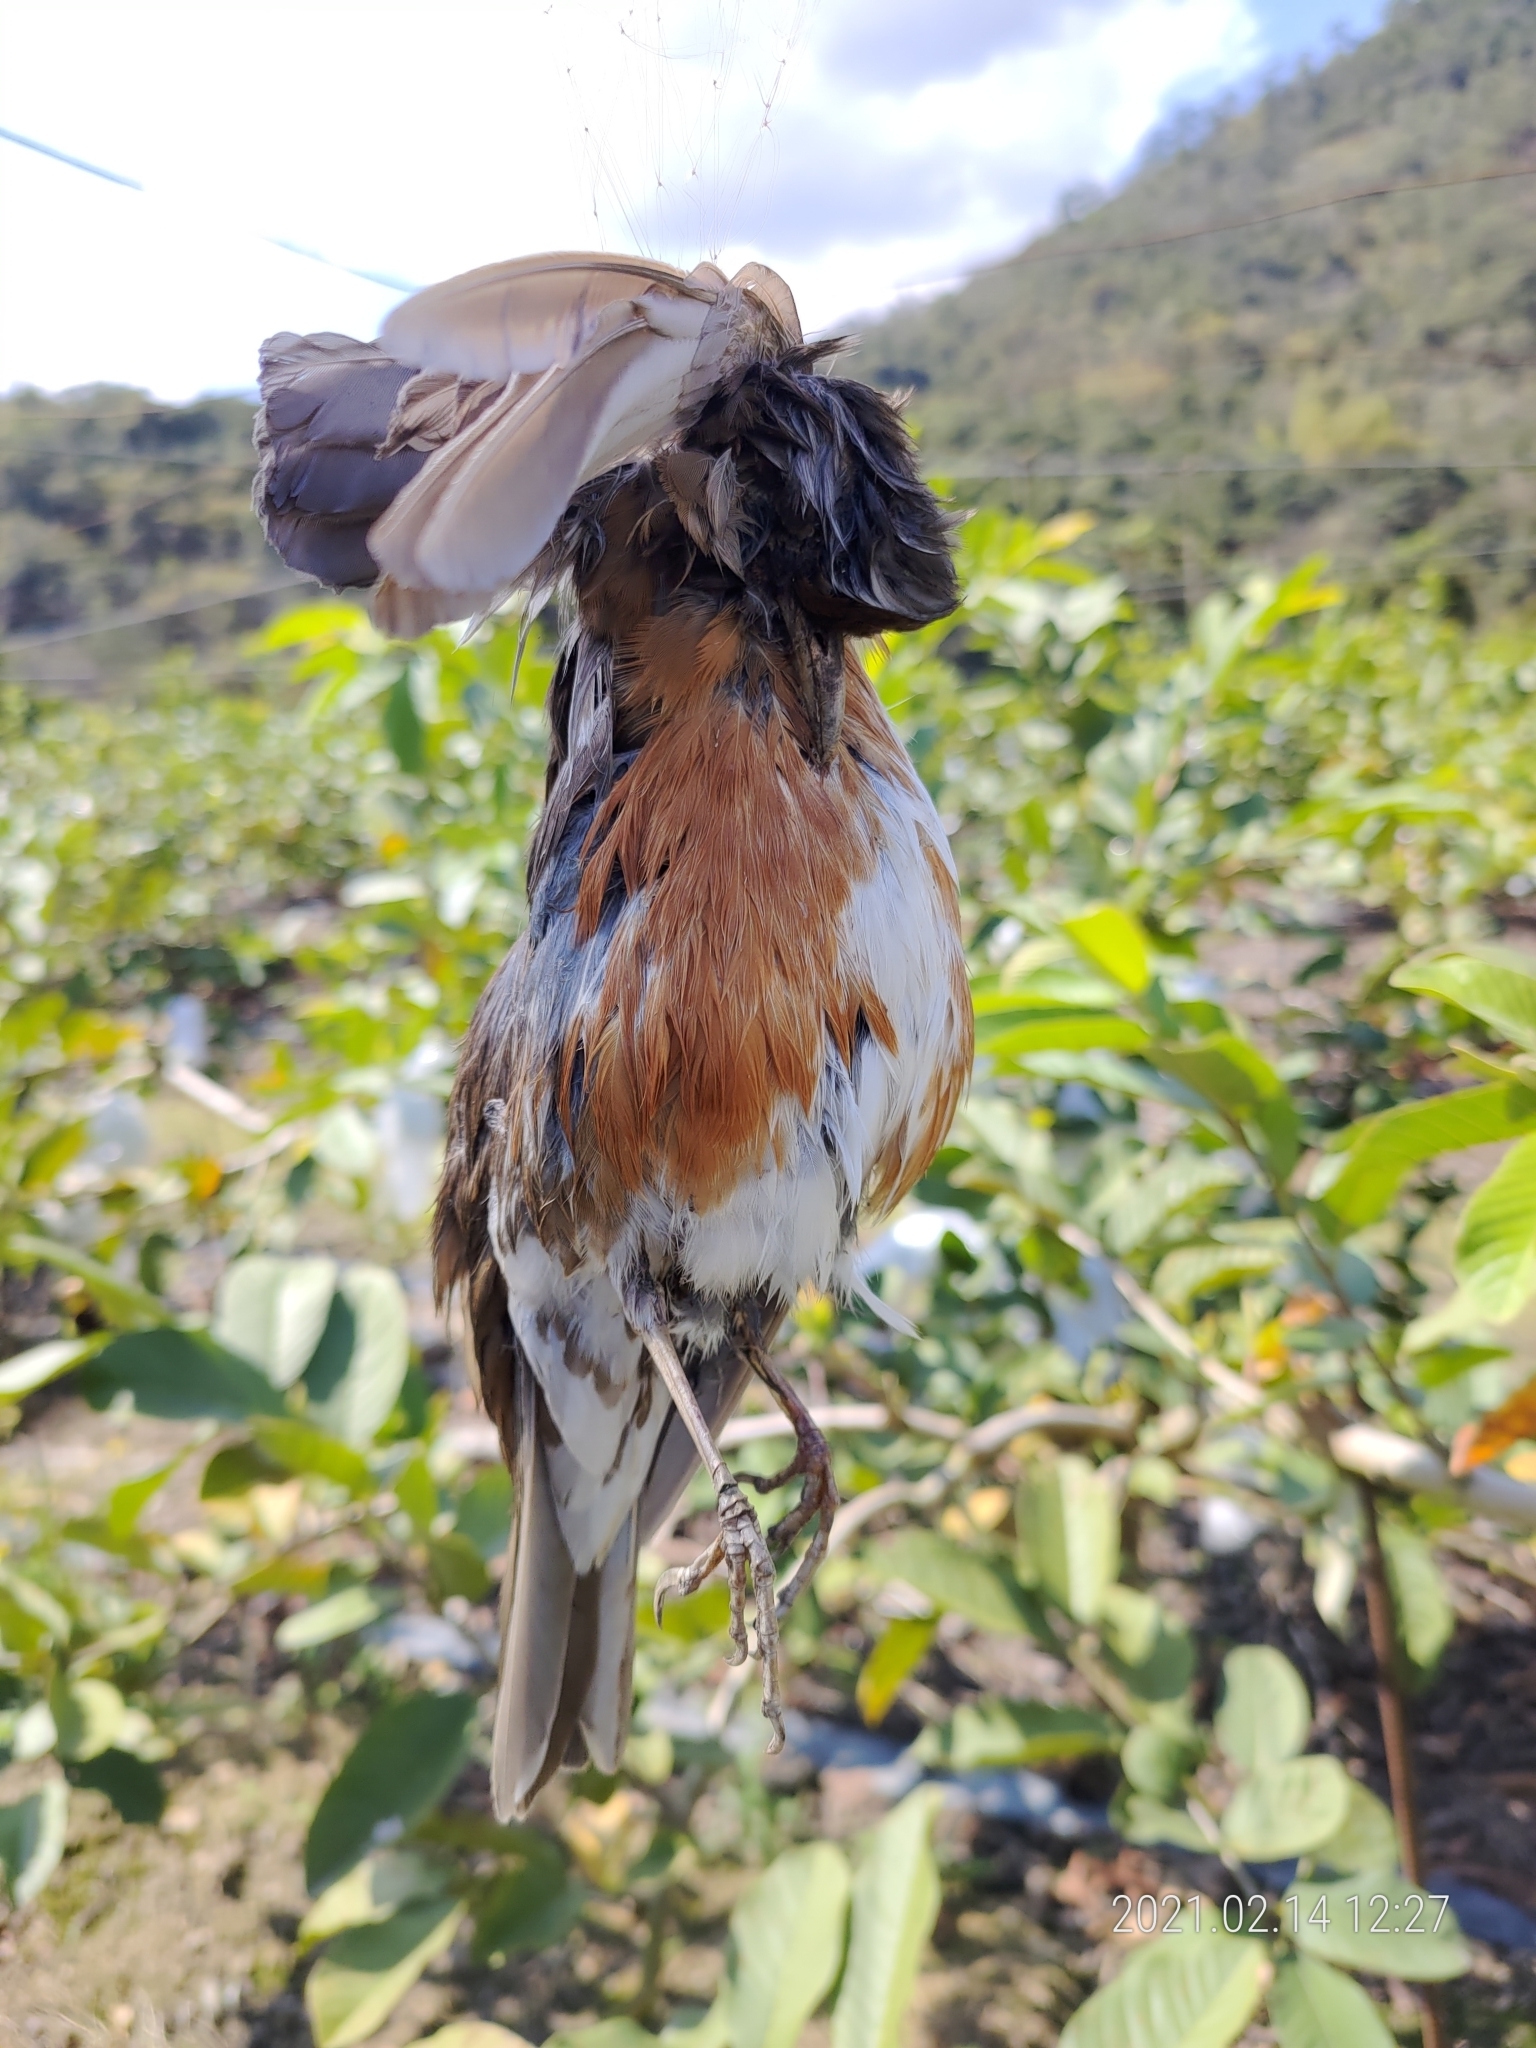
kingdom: Animalia
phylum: Chordata
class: Aves
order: Passeriformes
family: Turdidae
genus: Turdus
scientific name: Turdus chrysolaus
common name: Brown-headed thrush
